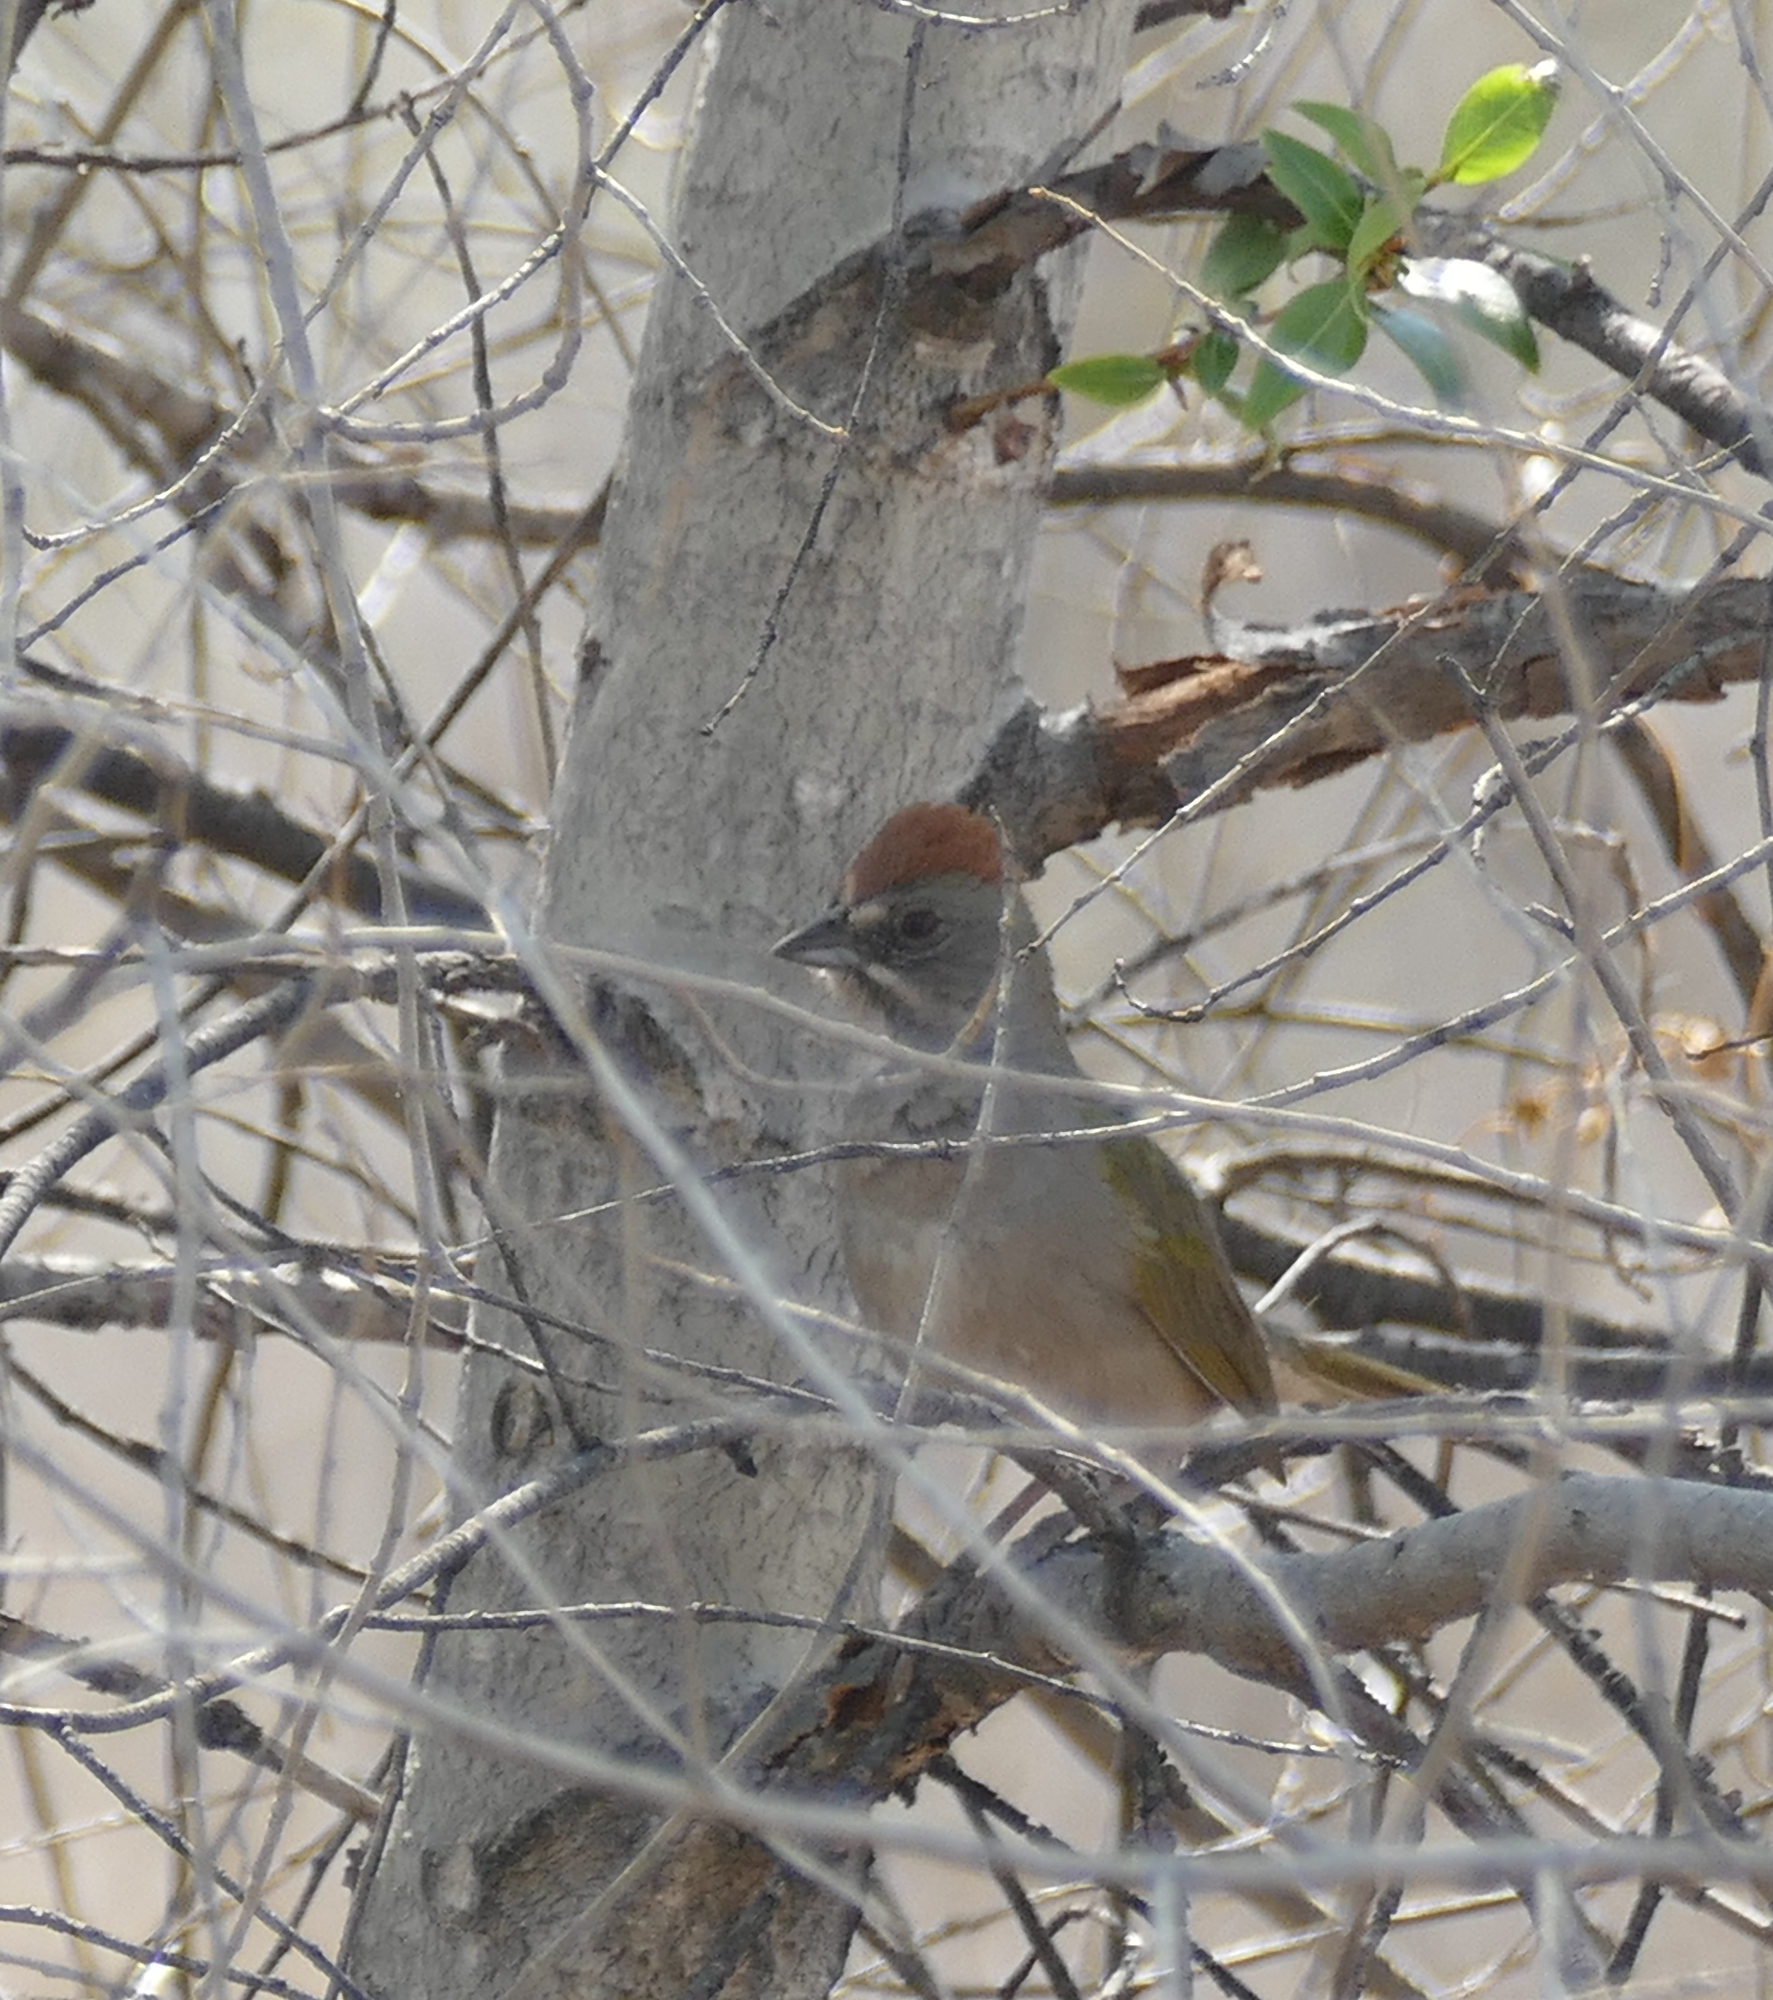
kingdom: Animalia
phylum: Chordata
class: Aves
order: Passeriformes
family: Passerellidae
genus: Pipilo
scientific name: Pipilo chlorurus
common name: Green-tailed towhee
